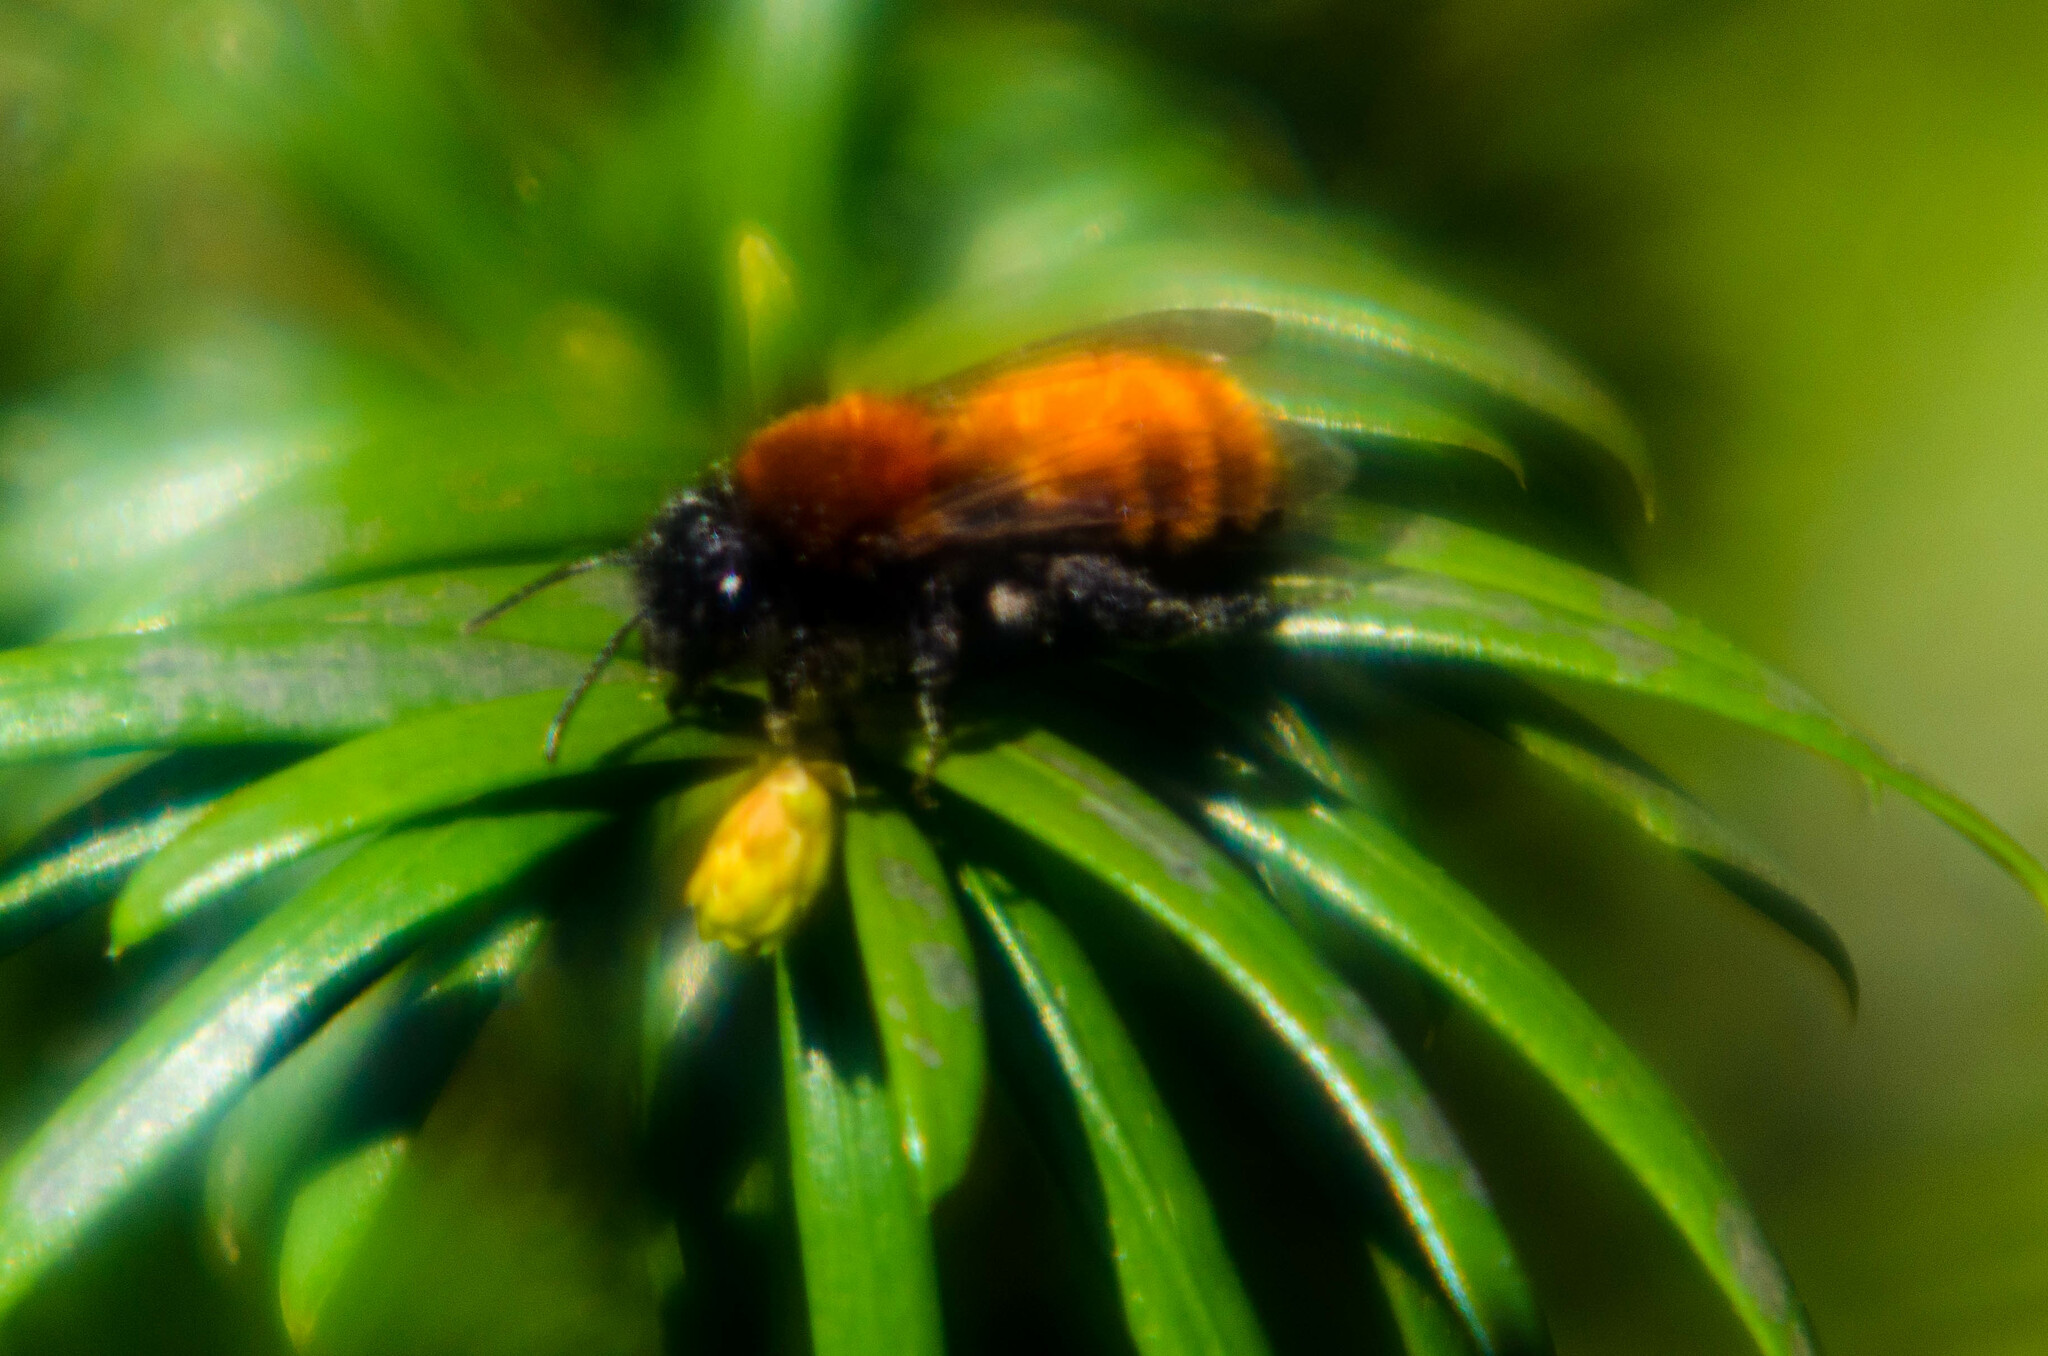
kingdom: Animalia
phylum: Arthropoda
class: Insecta
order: Hymenoptera
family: Andrenidae
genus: Andrena
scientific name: Andrena fulva
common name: Tawny mining bee
